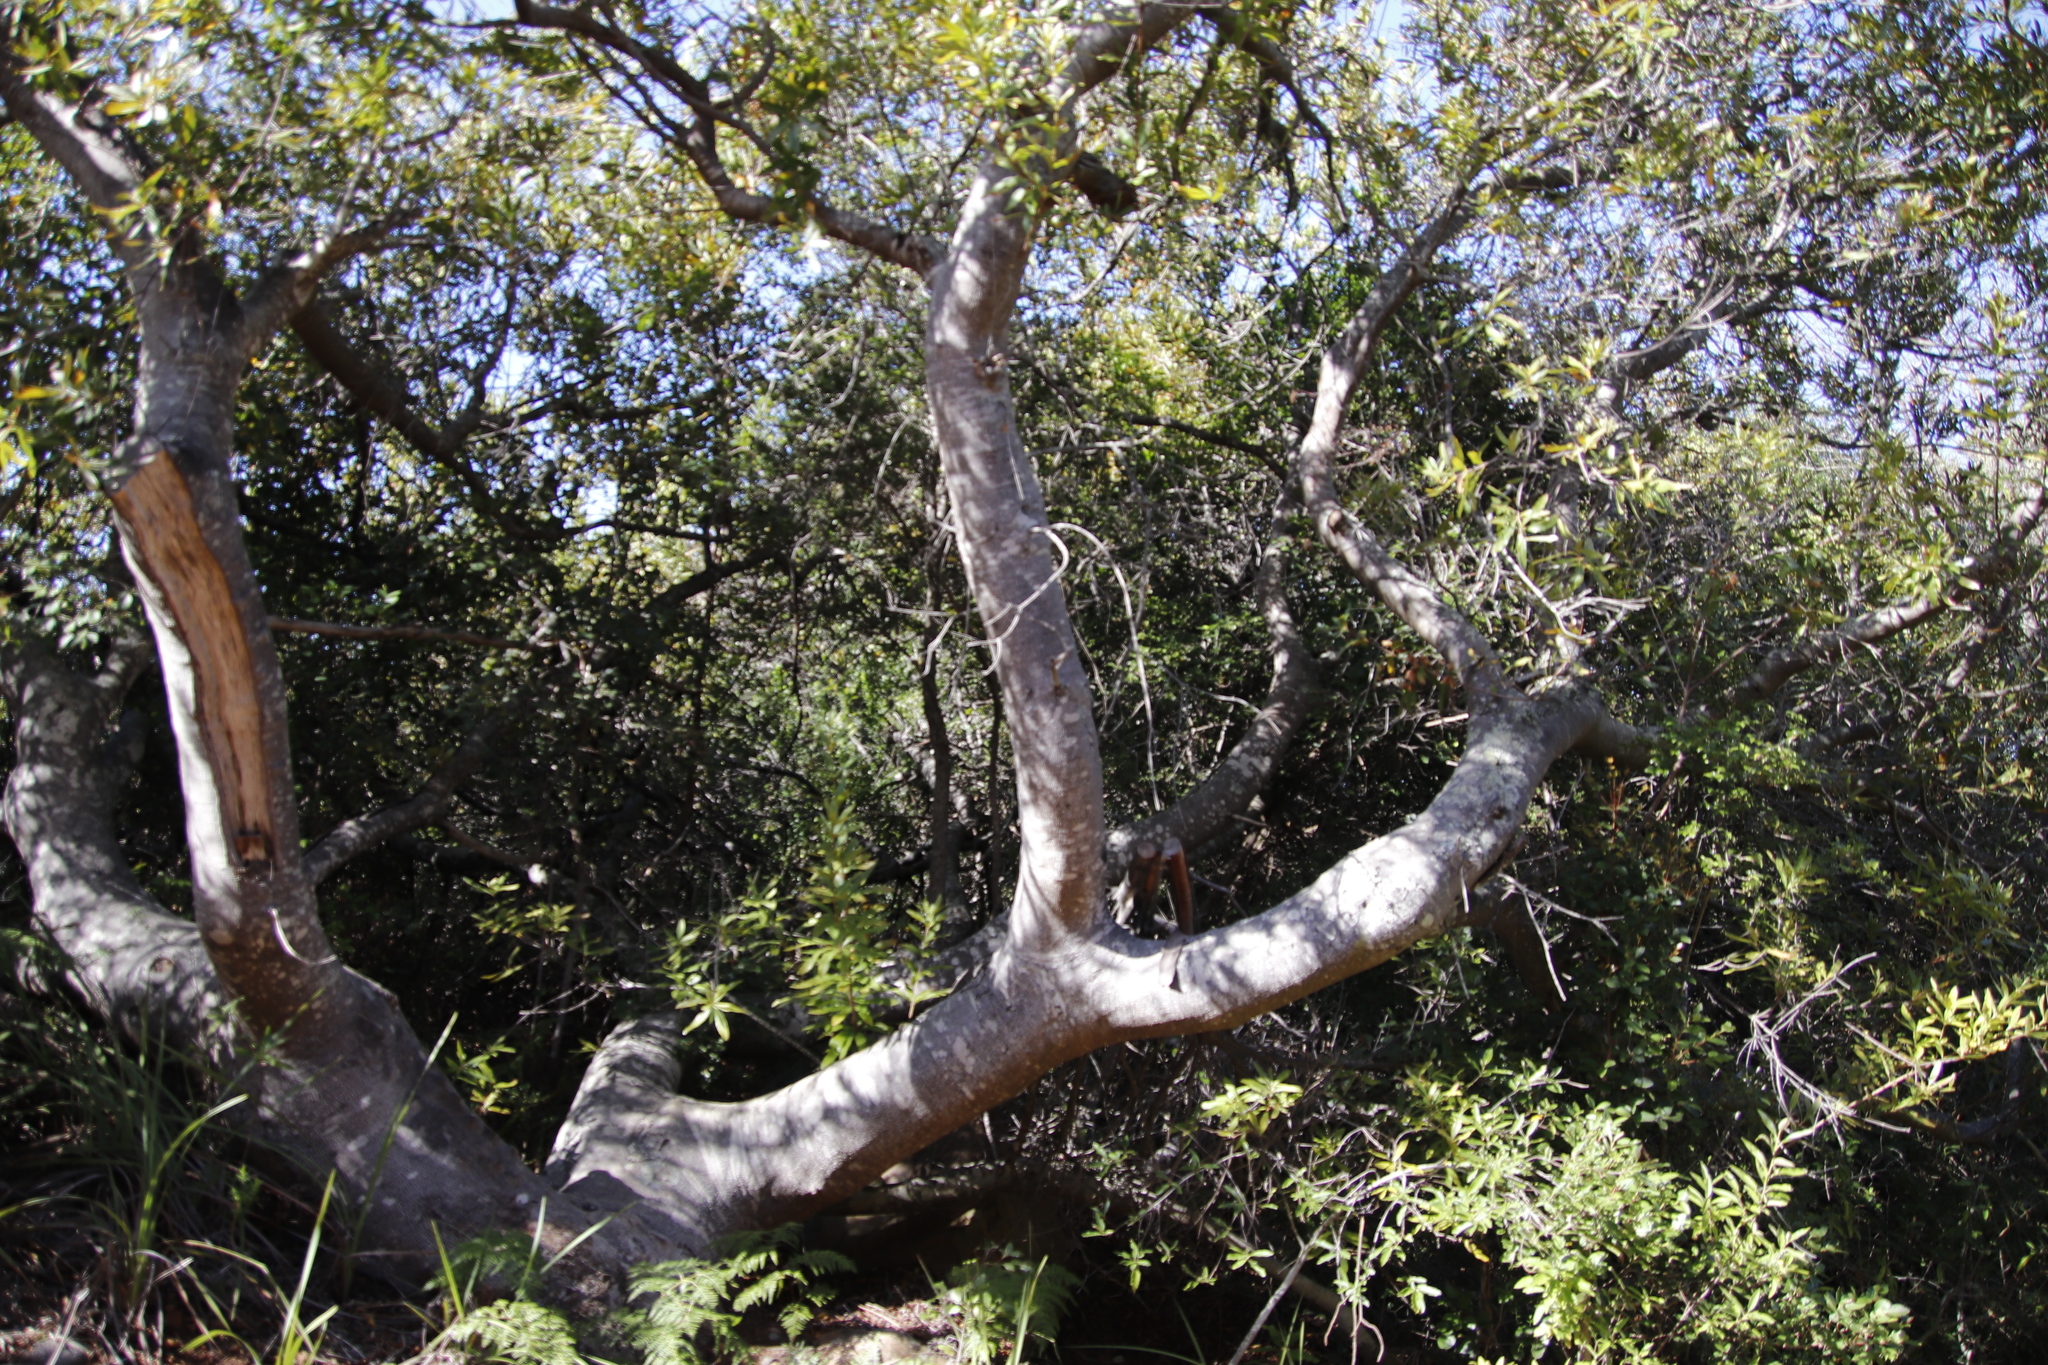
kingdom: Plantae
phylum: Tracheophyta
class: Magnoliopsida
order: Proteales
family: Proteaceae
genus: Brabejum
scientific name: Brabejum stellatifolium
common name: Wild almond
